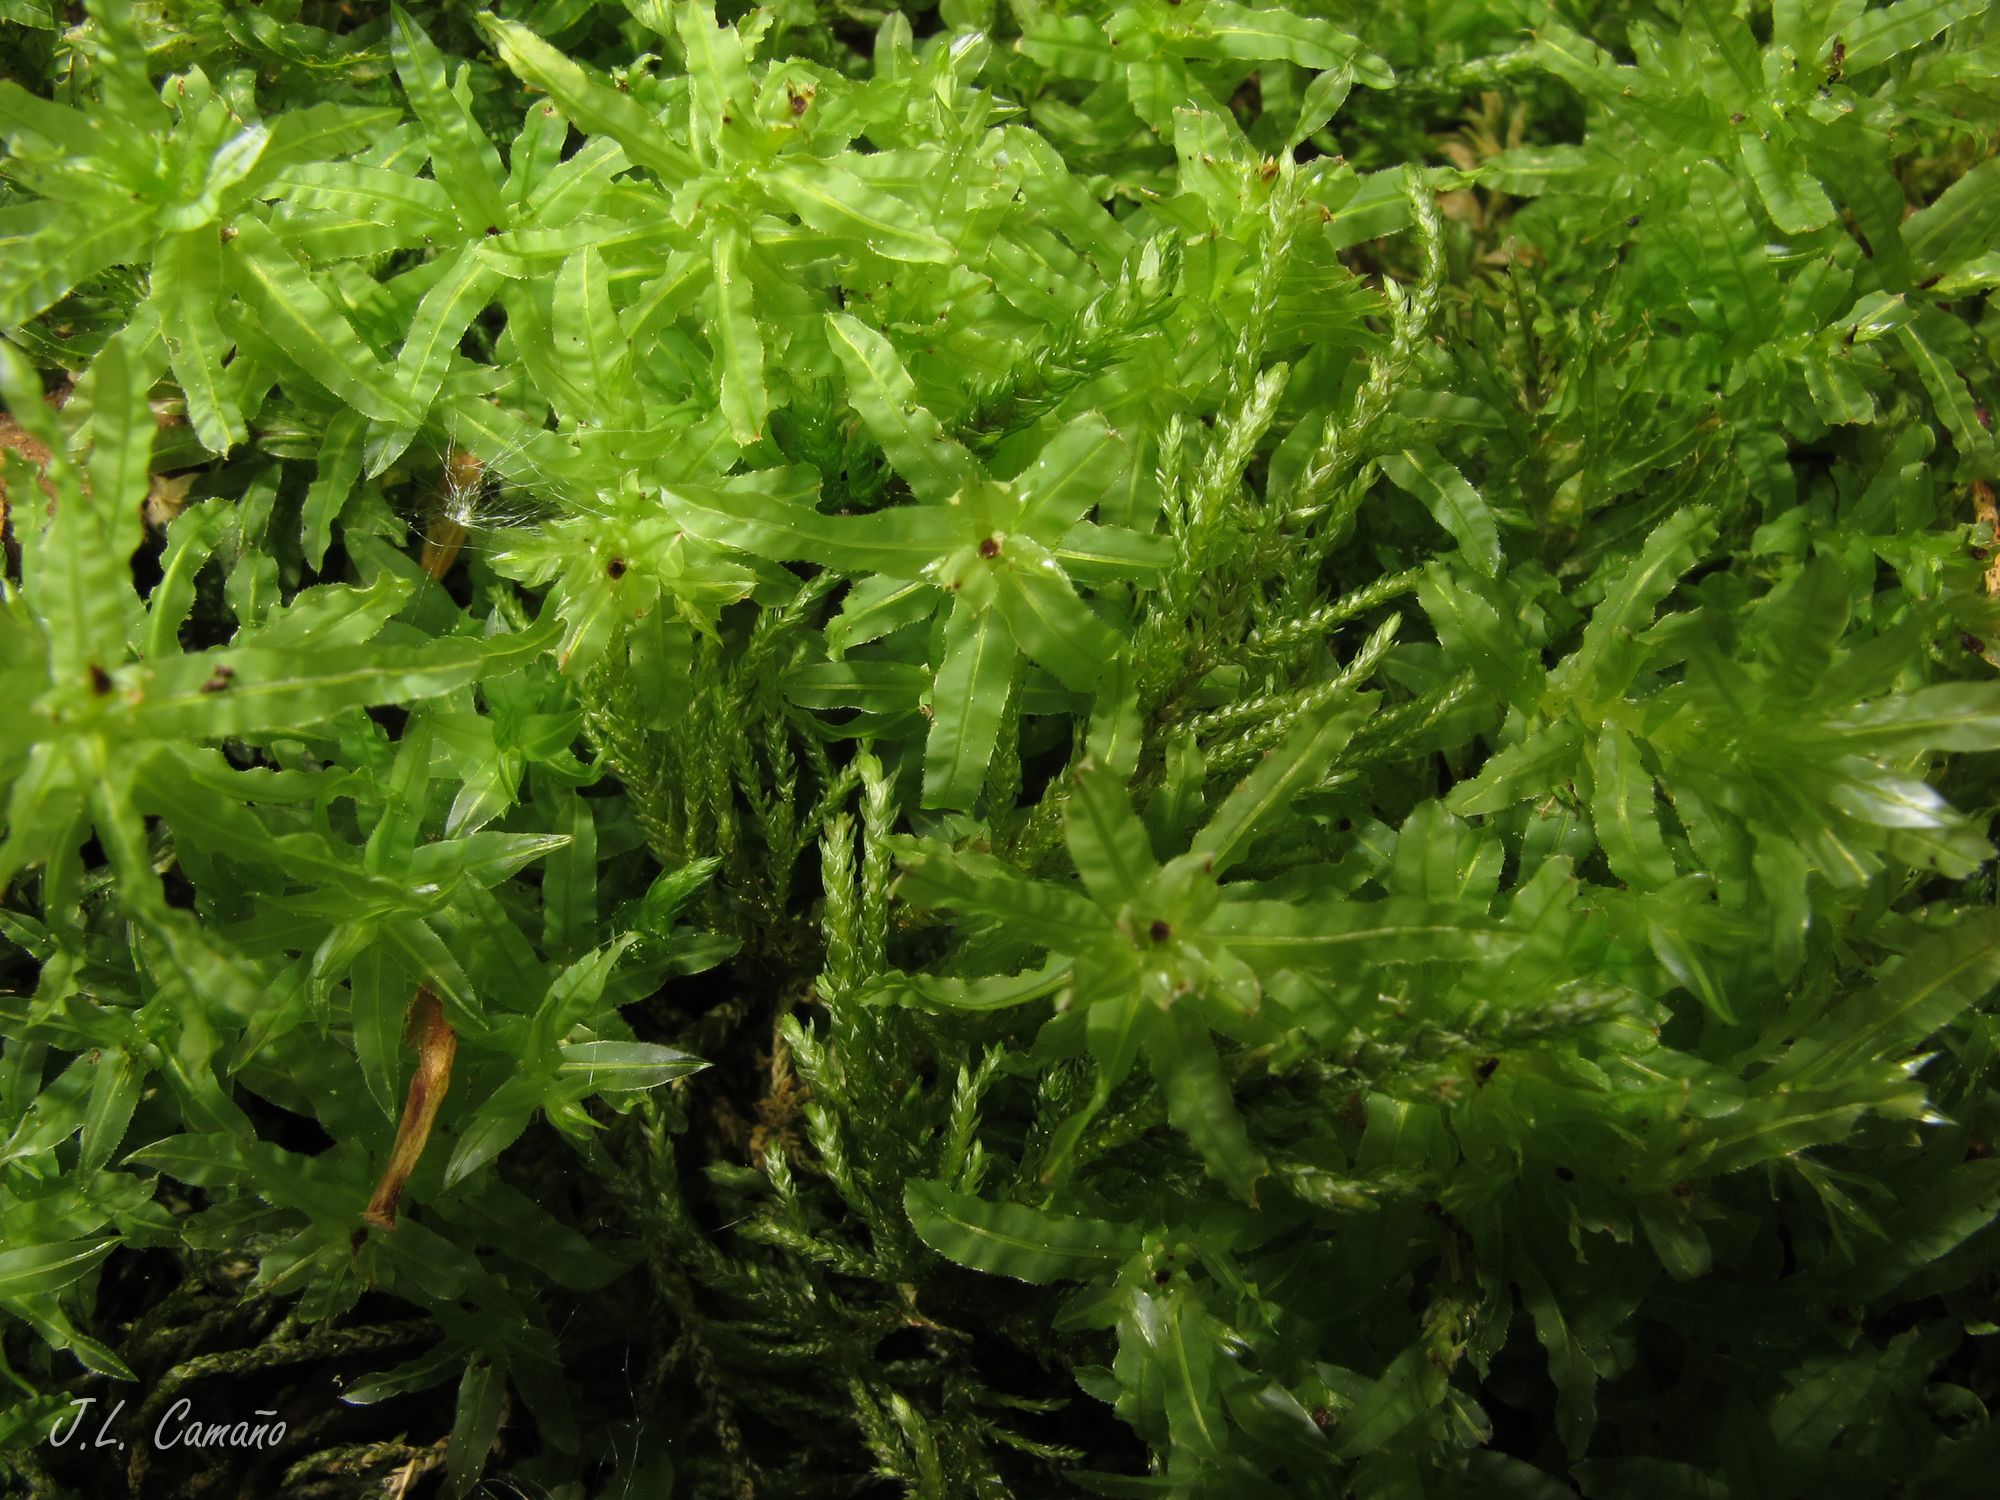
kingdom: Plantae
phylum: Bryophyta
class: Bryopsida
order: Bryales
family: Mniaceae
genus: Plagiomnium
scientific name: Plagiomnium undulatum
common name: Hart's-tongue thyme-moss
